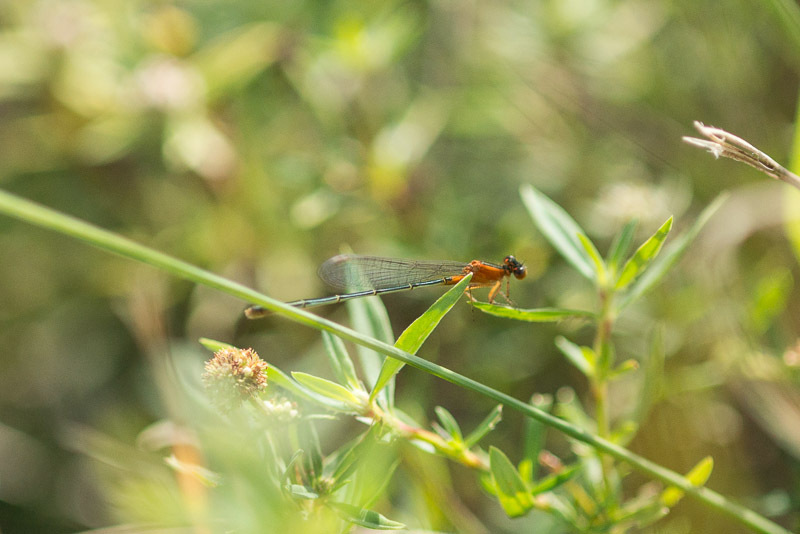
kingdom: Animalia
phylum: Arthropoda
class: Insecta
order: Odonata
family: Coenagrionidae
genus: Ischnura
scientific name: Ischnura ramburii
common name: Rambur's forktail
